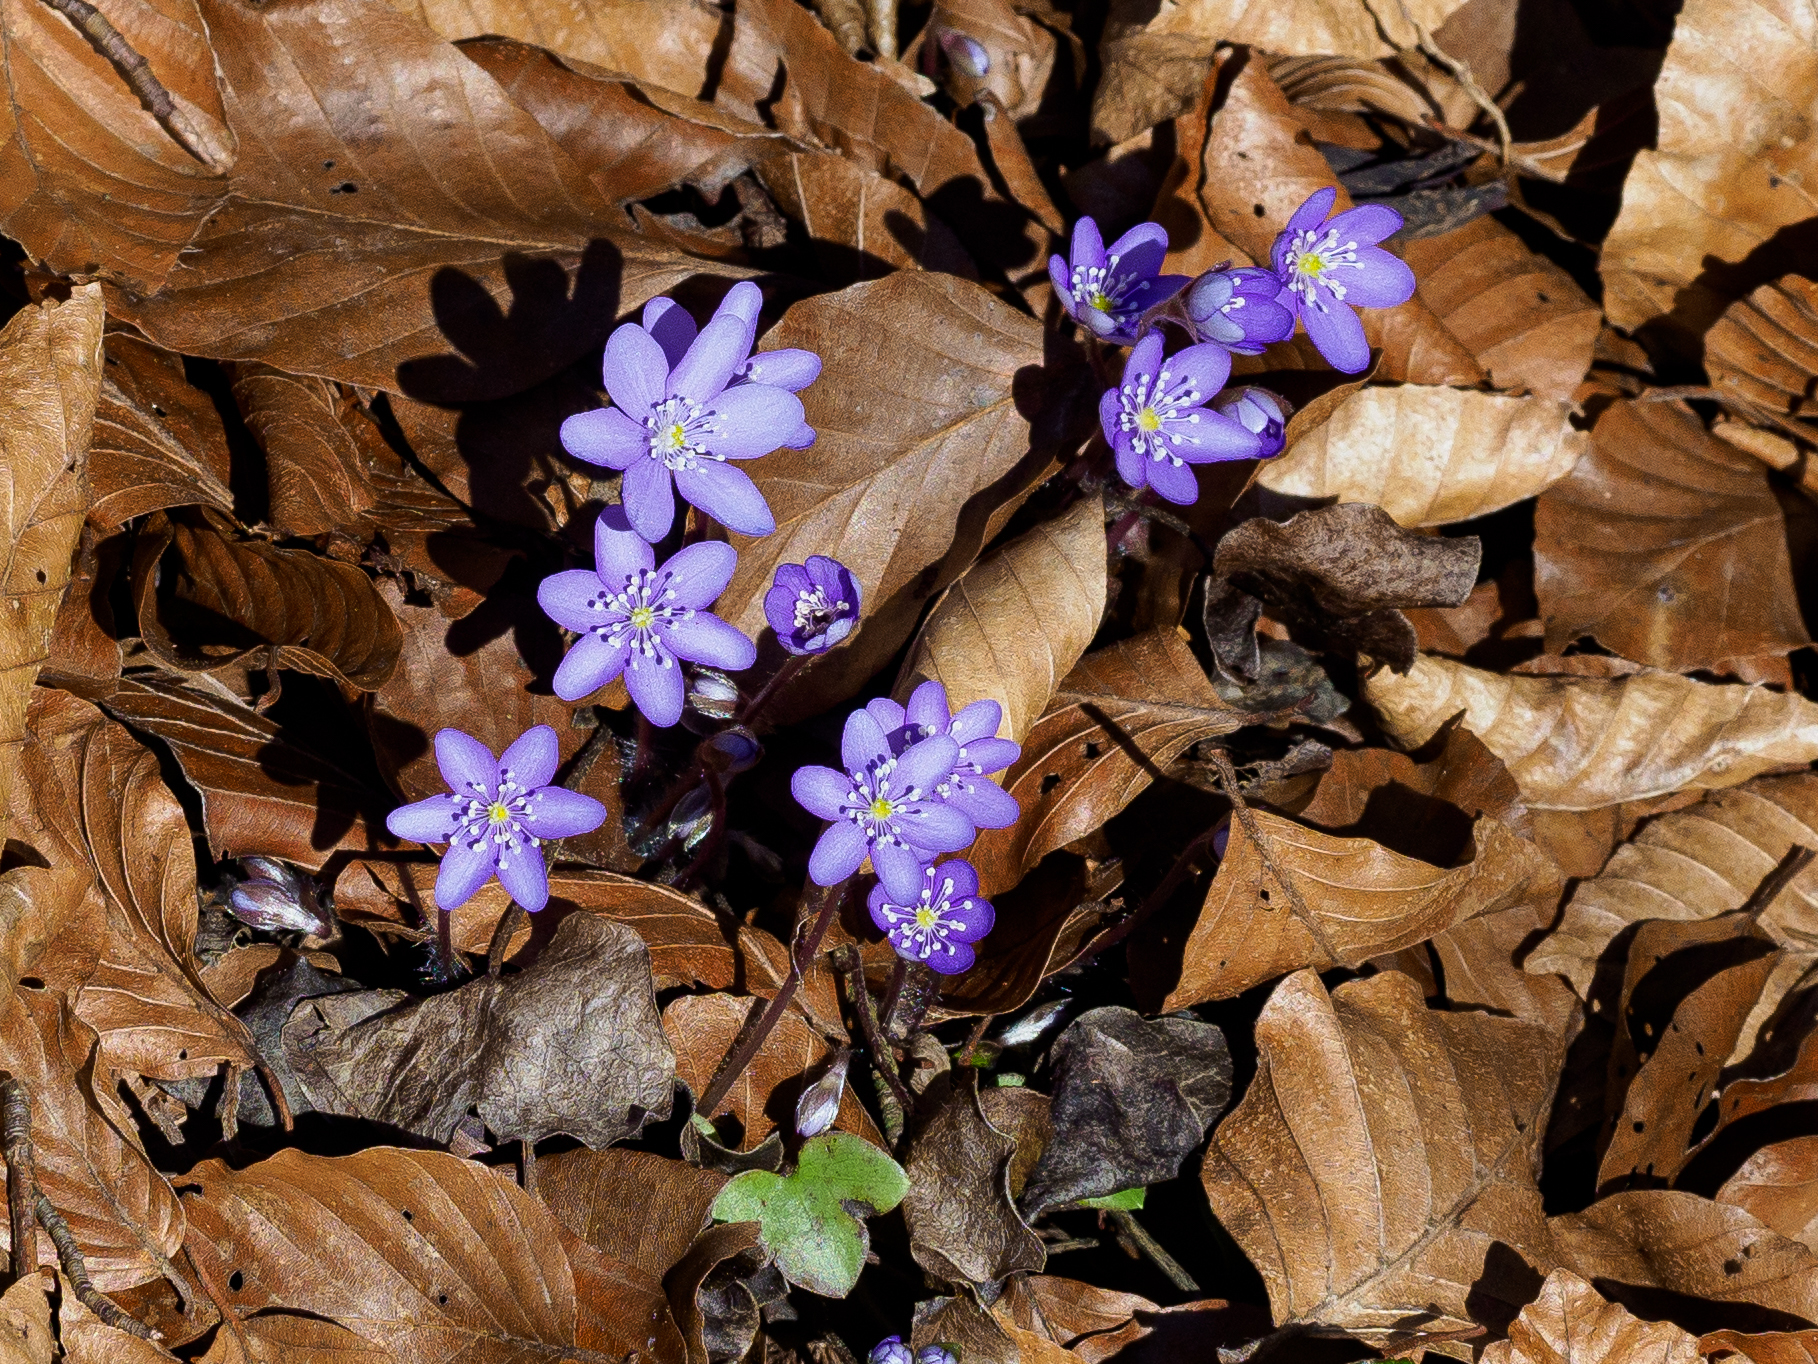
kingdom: Plantae
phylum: Tracheophyta
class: Magnoliopsida
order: Ranunculales
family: Ranunculaceae
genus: Hepatica
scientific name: Hepatica nobilis
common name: Liverleaf
